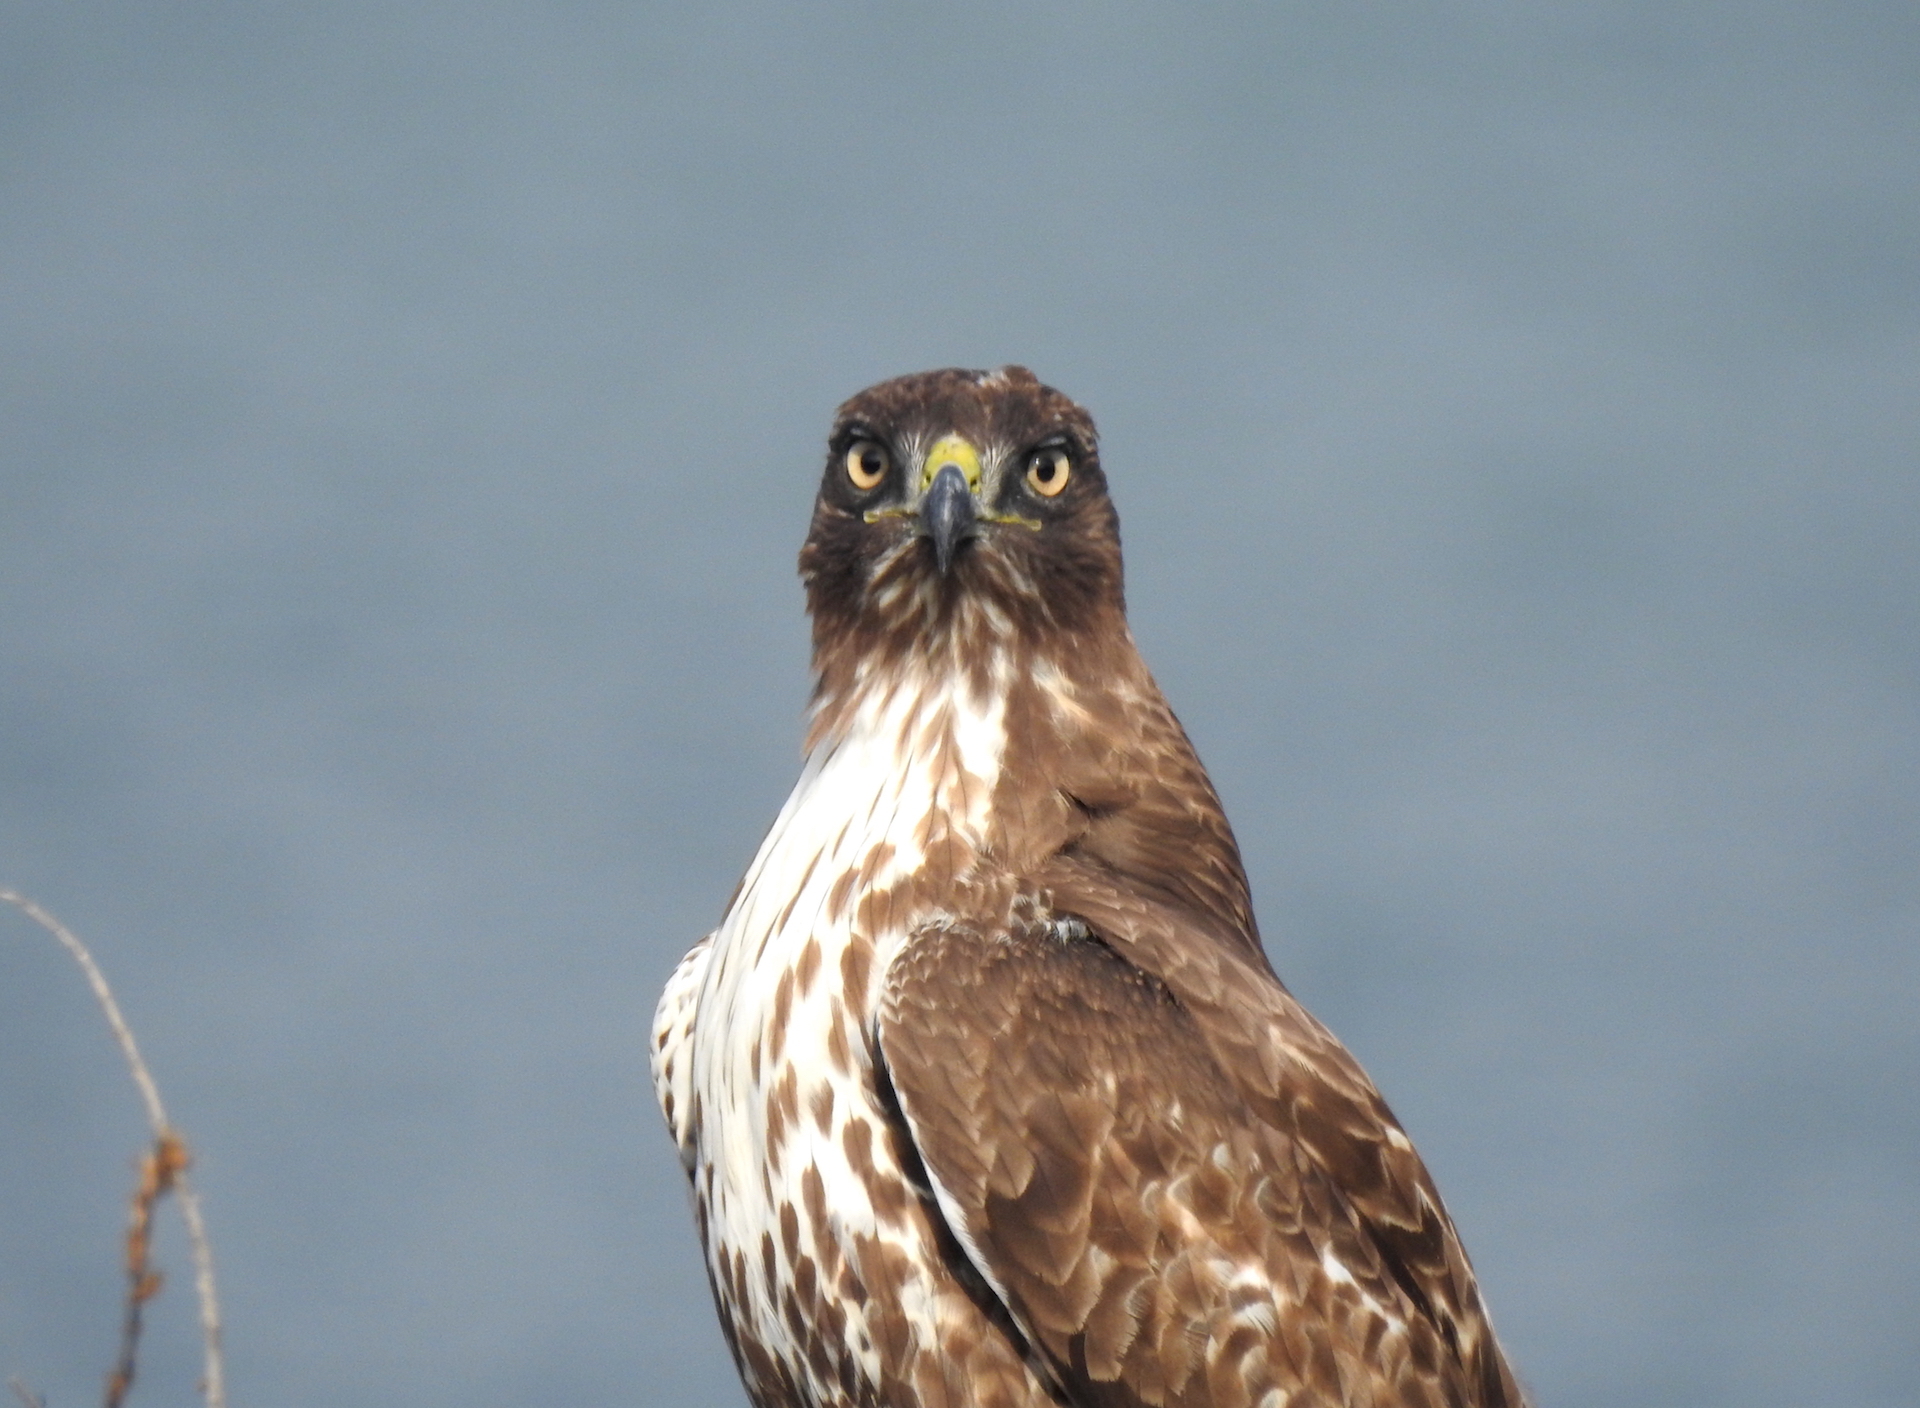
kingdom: Animalia
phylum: Chordata
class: Aves
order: Accipitriformes
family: Accipitridae
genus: Buteo
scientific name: Buteo jamaicensis
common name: Red-tailed hawk
